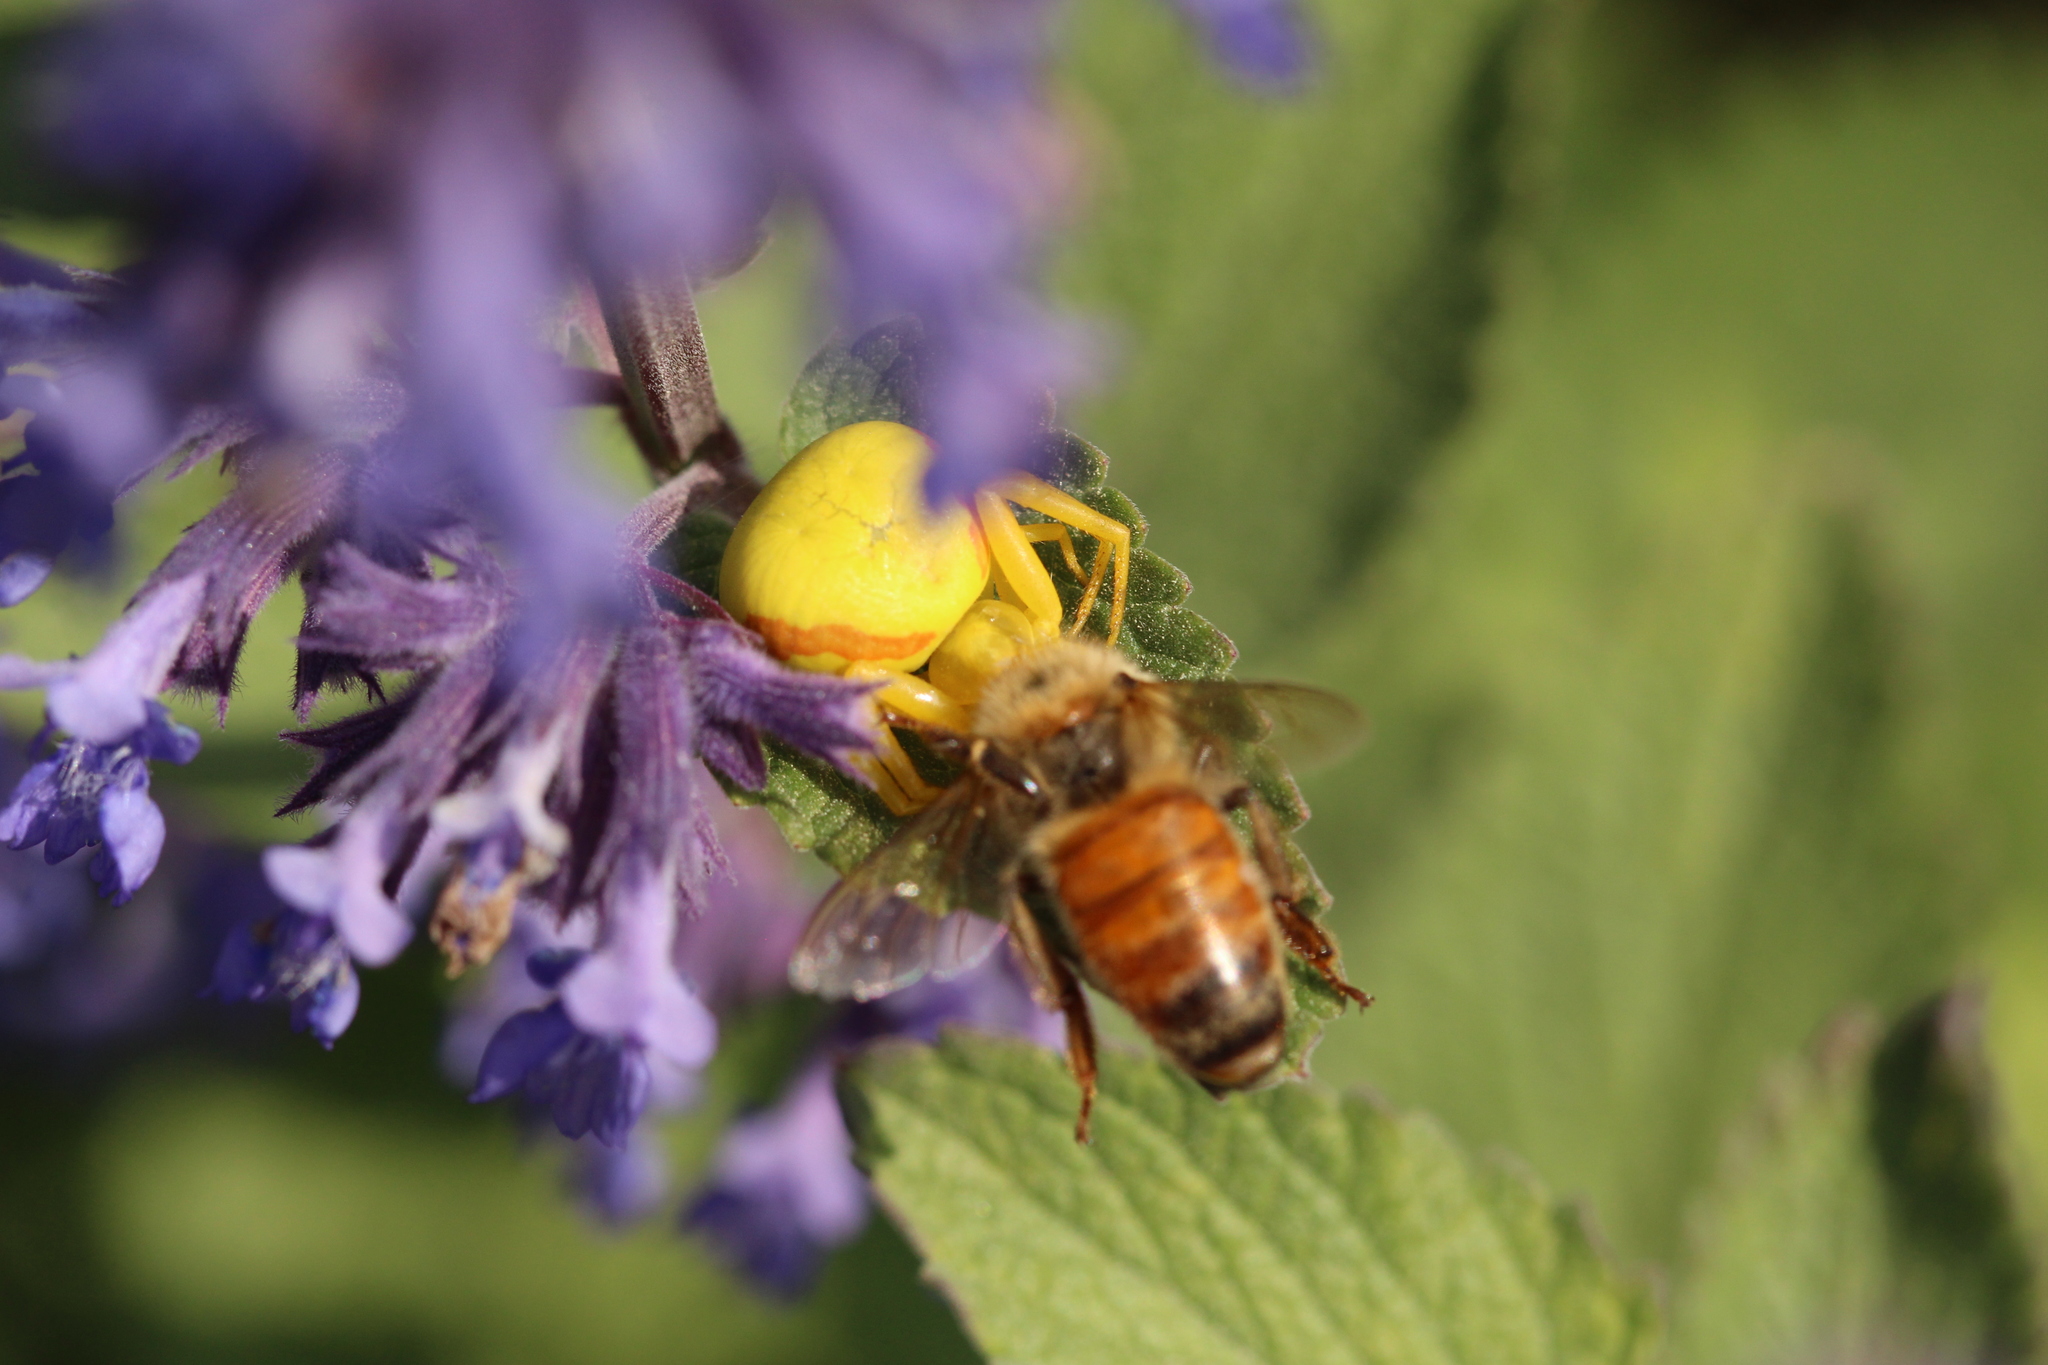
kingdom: Animalia
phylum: Arthropoda
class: Arachnida
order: Araneae
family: Thomisidae
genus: Misumena
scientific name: Misumena vatia
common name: Goldenrod crab spider
